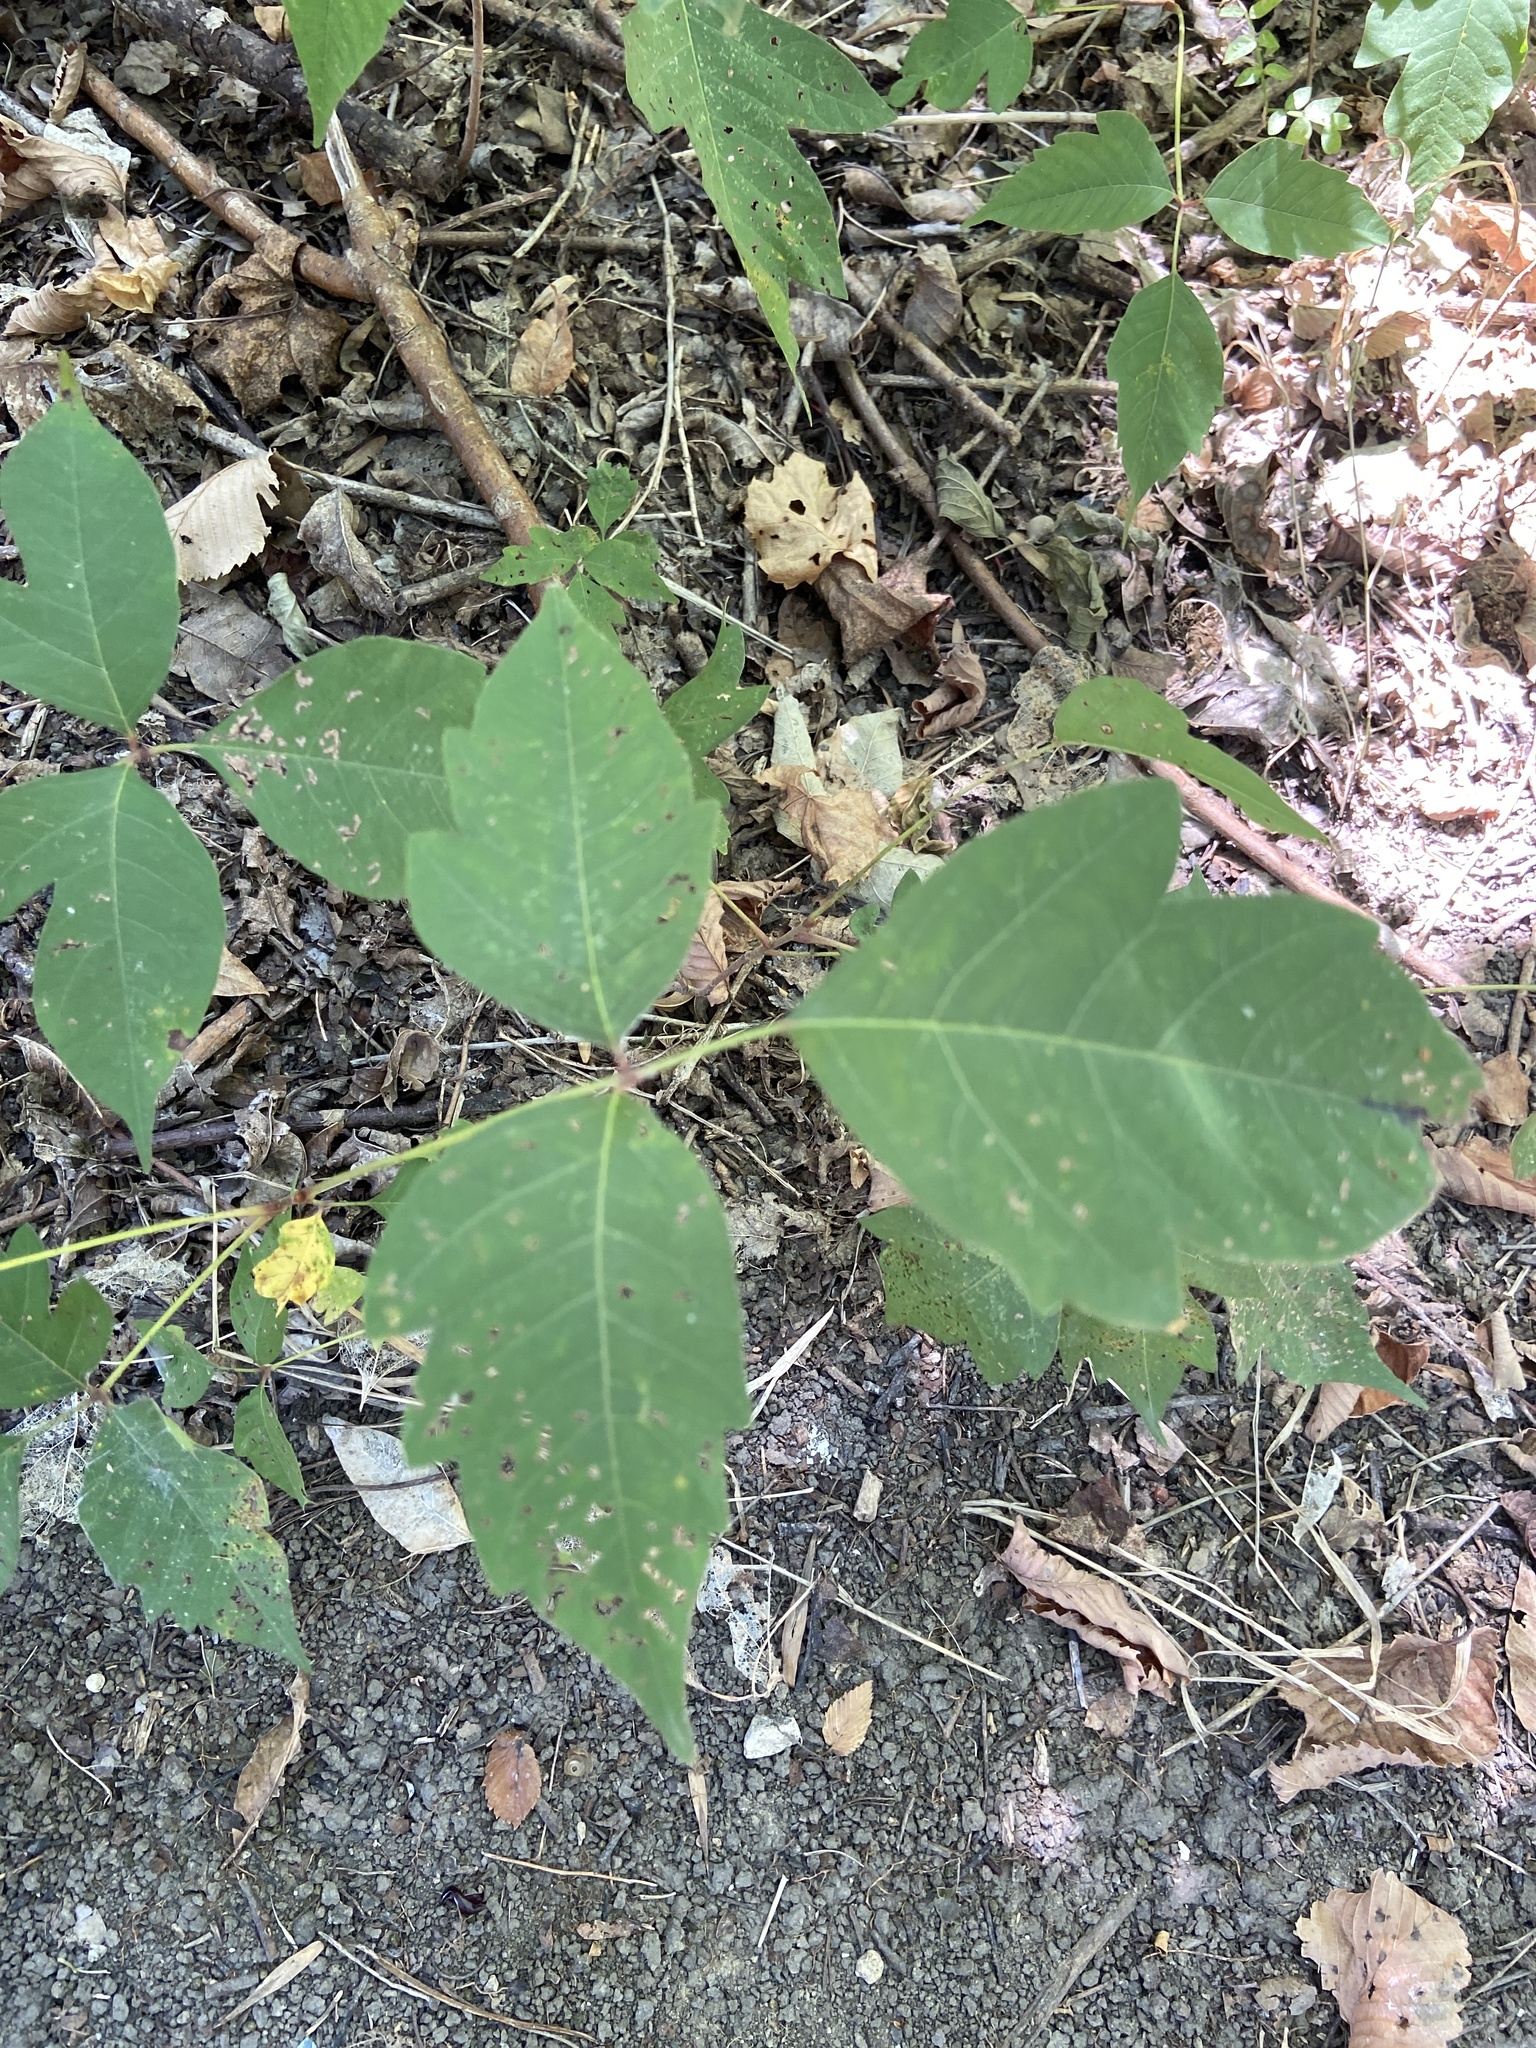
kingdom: Plantae
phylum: Tracheophyta
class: Magnoliopsida
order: Sapindales
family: Anacardiaceae
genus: Toxicodendron
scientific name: Toxicodendron radicans
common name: Poison ivy
